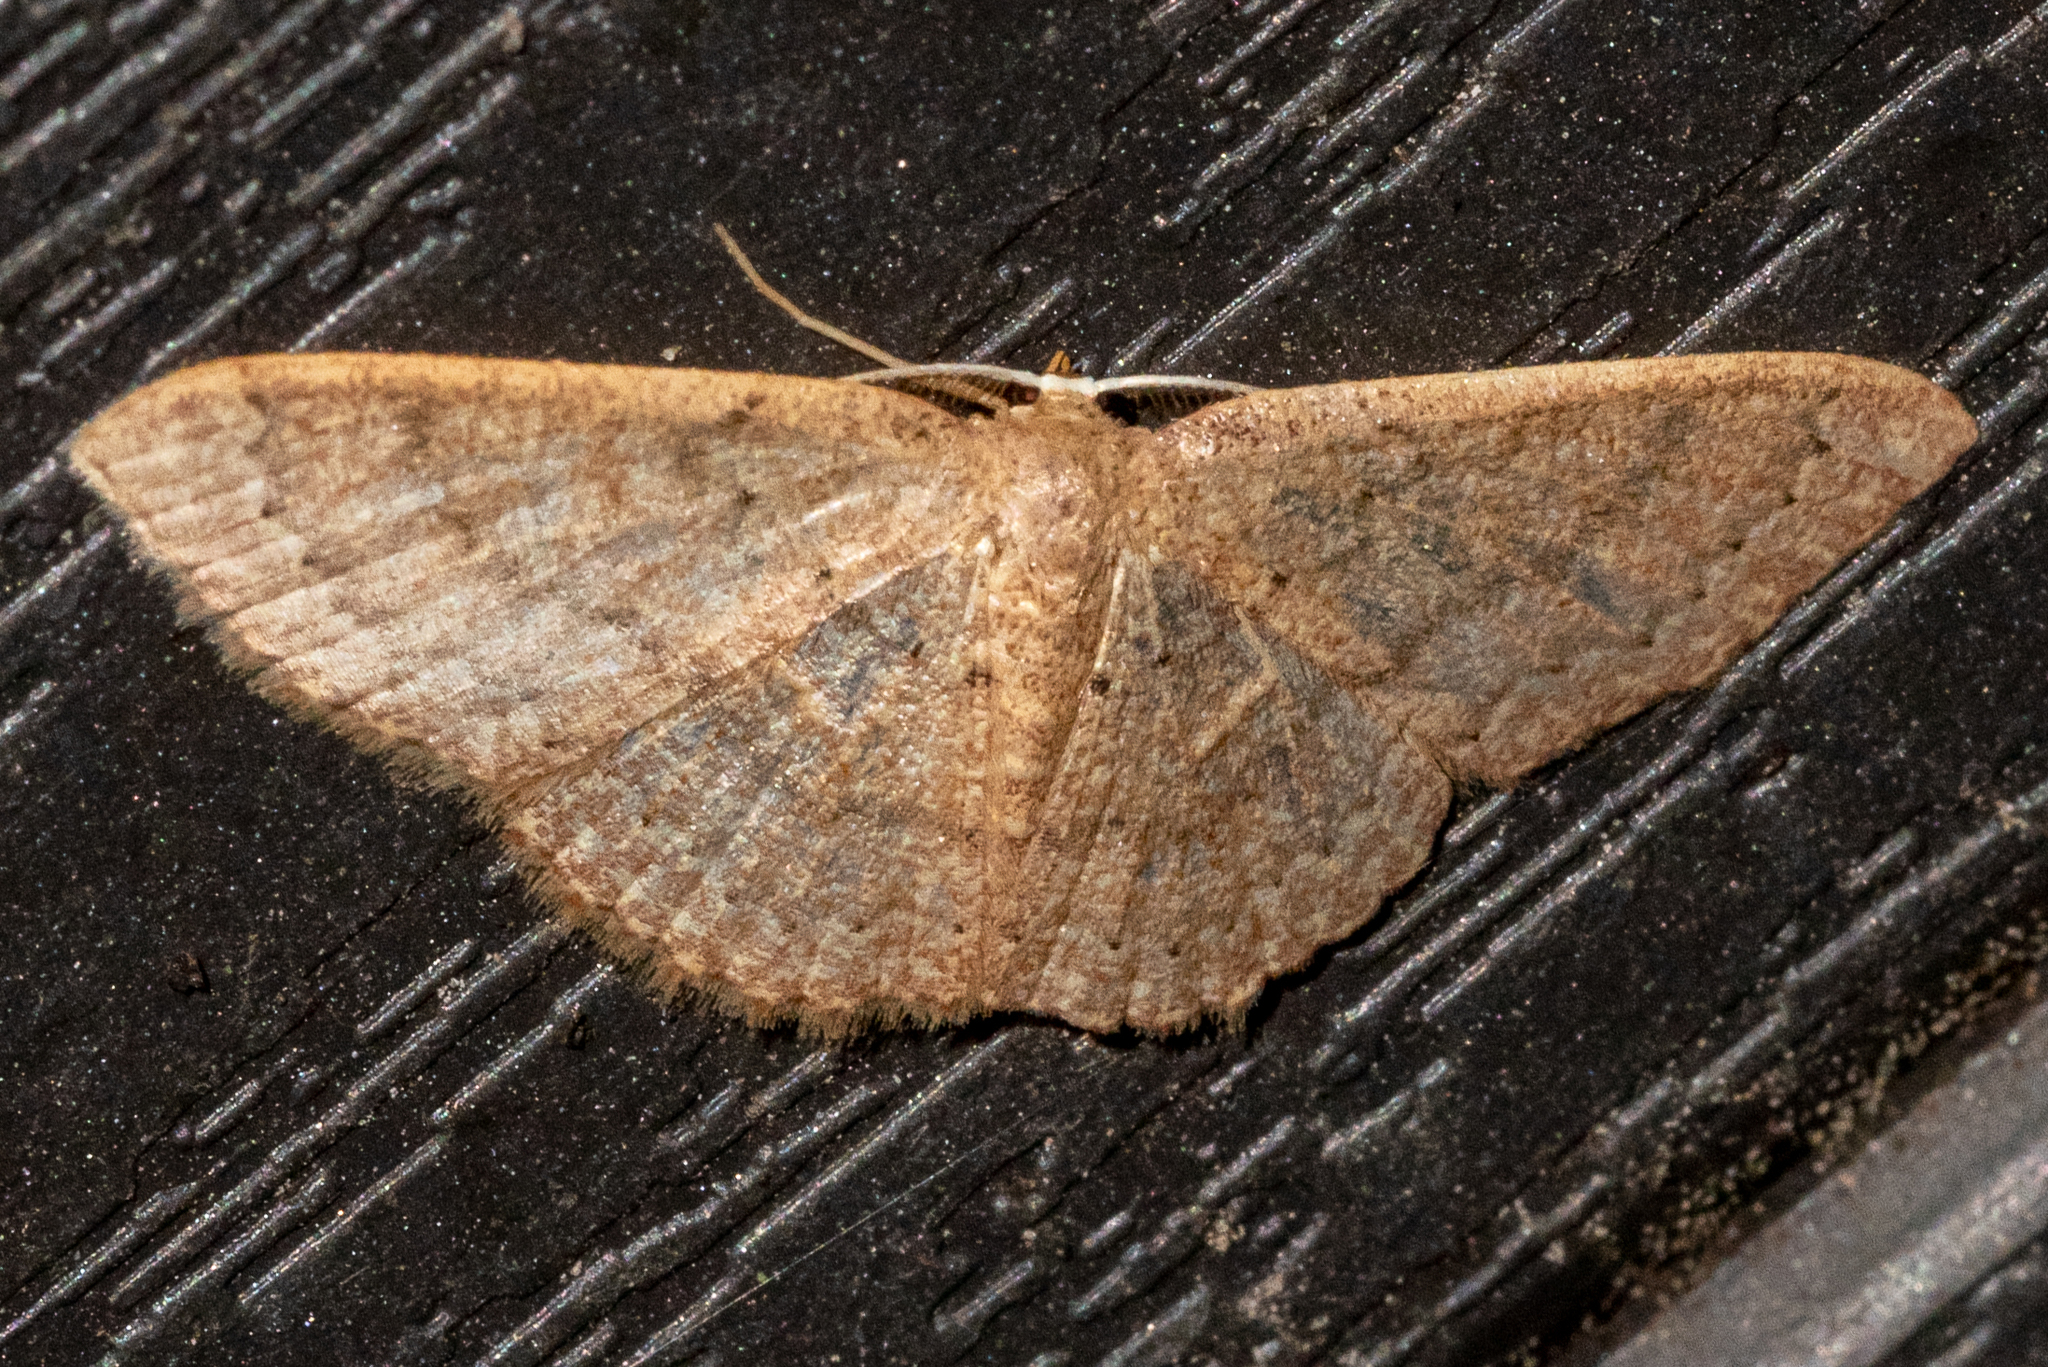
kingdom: Animalia
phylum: Arthropoda
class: Insecta
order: Lepidoptera
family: Geometridae
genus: Pleuroprucha
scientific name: Pleuroprucha insulsaria
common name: Common tan wave
